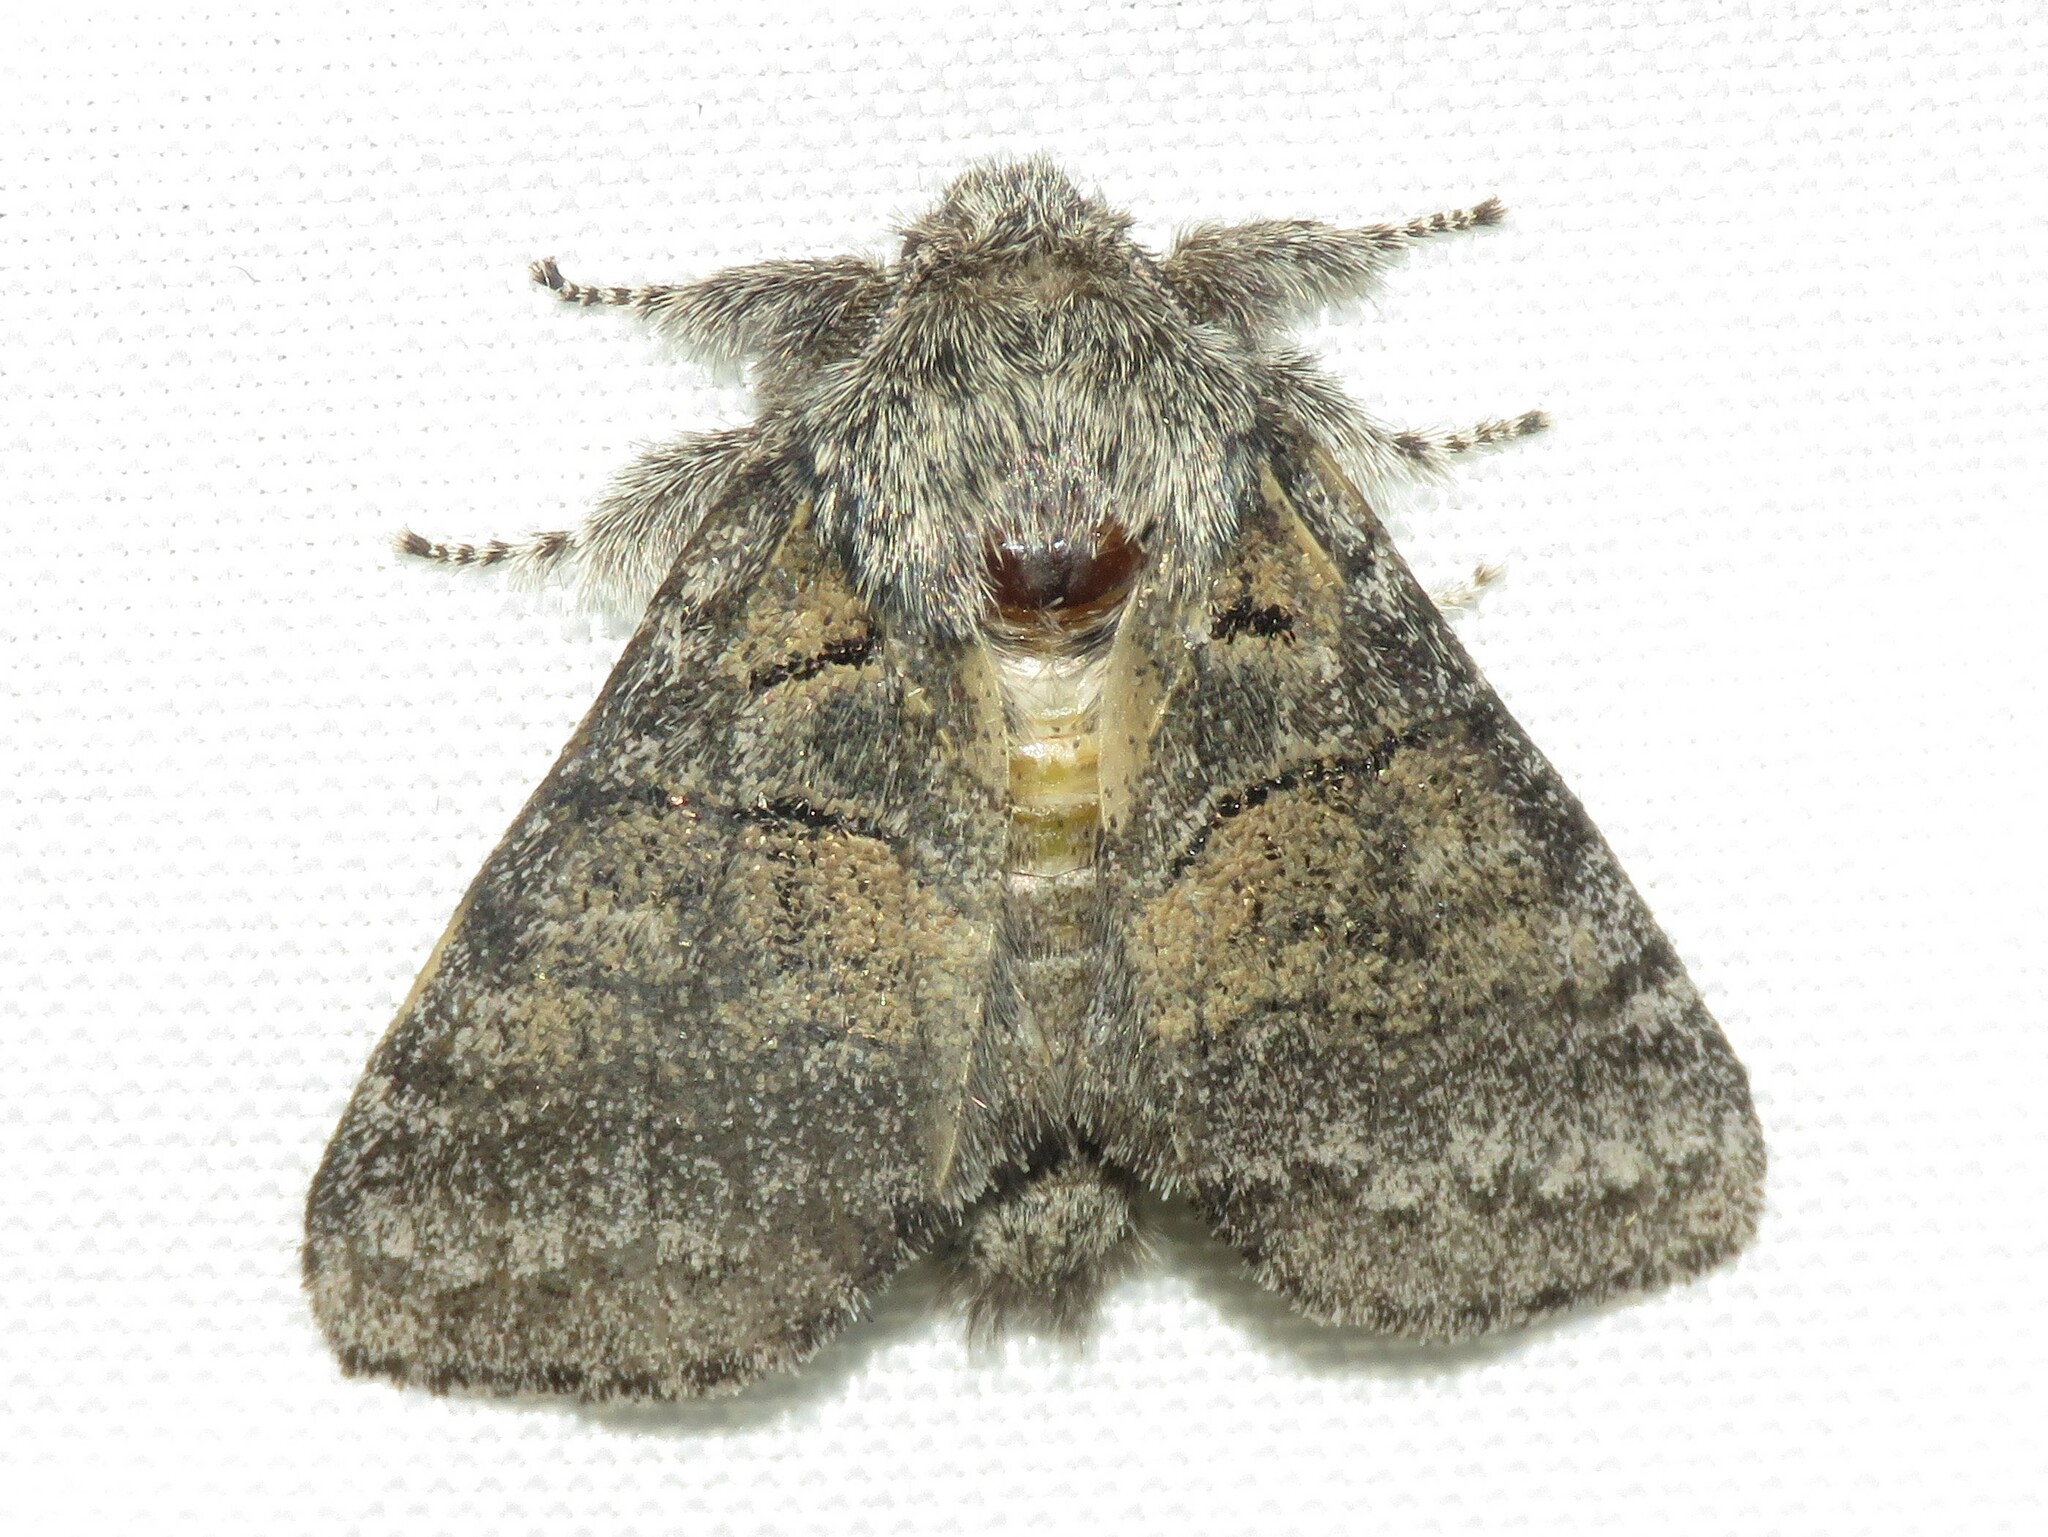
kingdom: Animalia
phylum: Arthropoda
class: Insecta
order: Lepidoptera
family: Notodontidae
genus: Gluphisia
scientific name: Gluphisia septentrionis
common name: Common gluphisia
